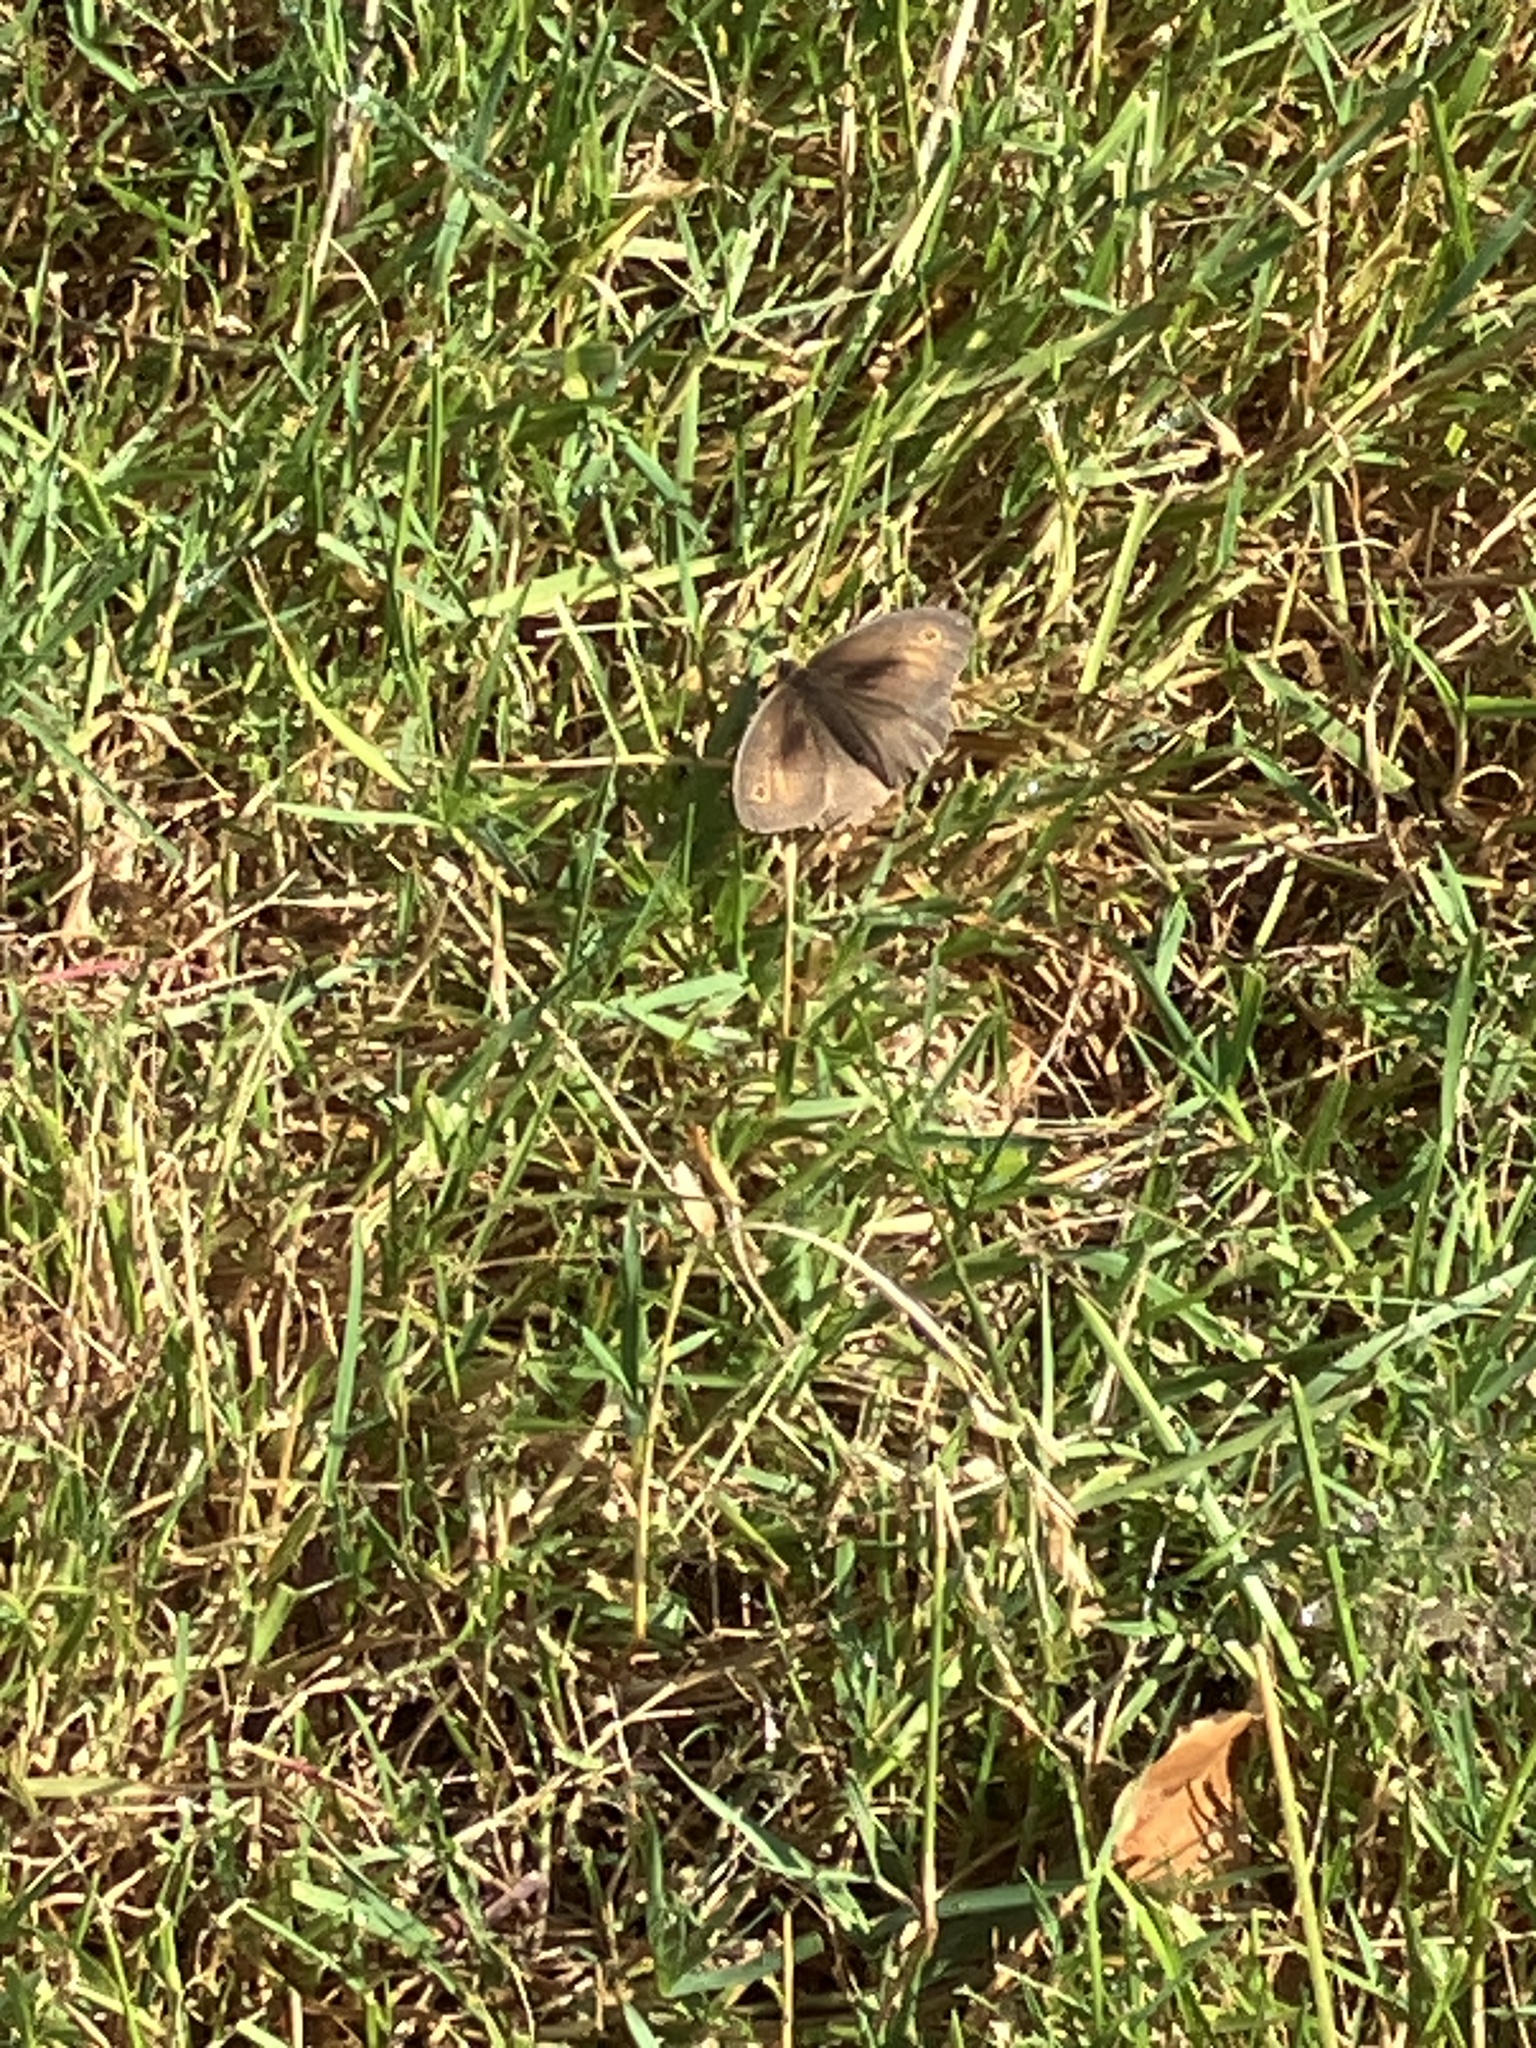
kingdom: Animalia
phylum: Arthropoda
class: Insecta
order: Lepidoptera
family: Nymphalidae
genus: Maniola
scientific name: Maniola jurtina
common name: Meadow brown
